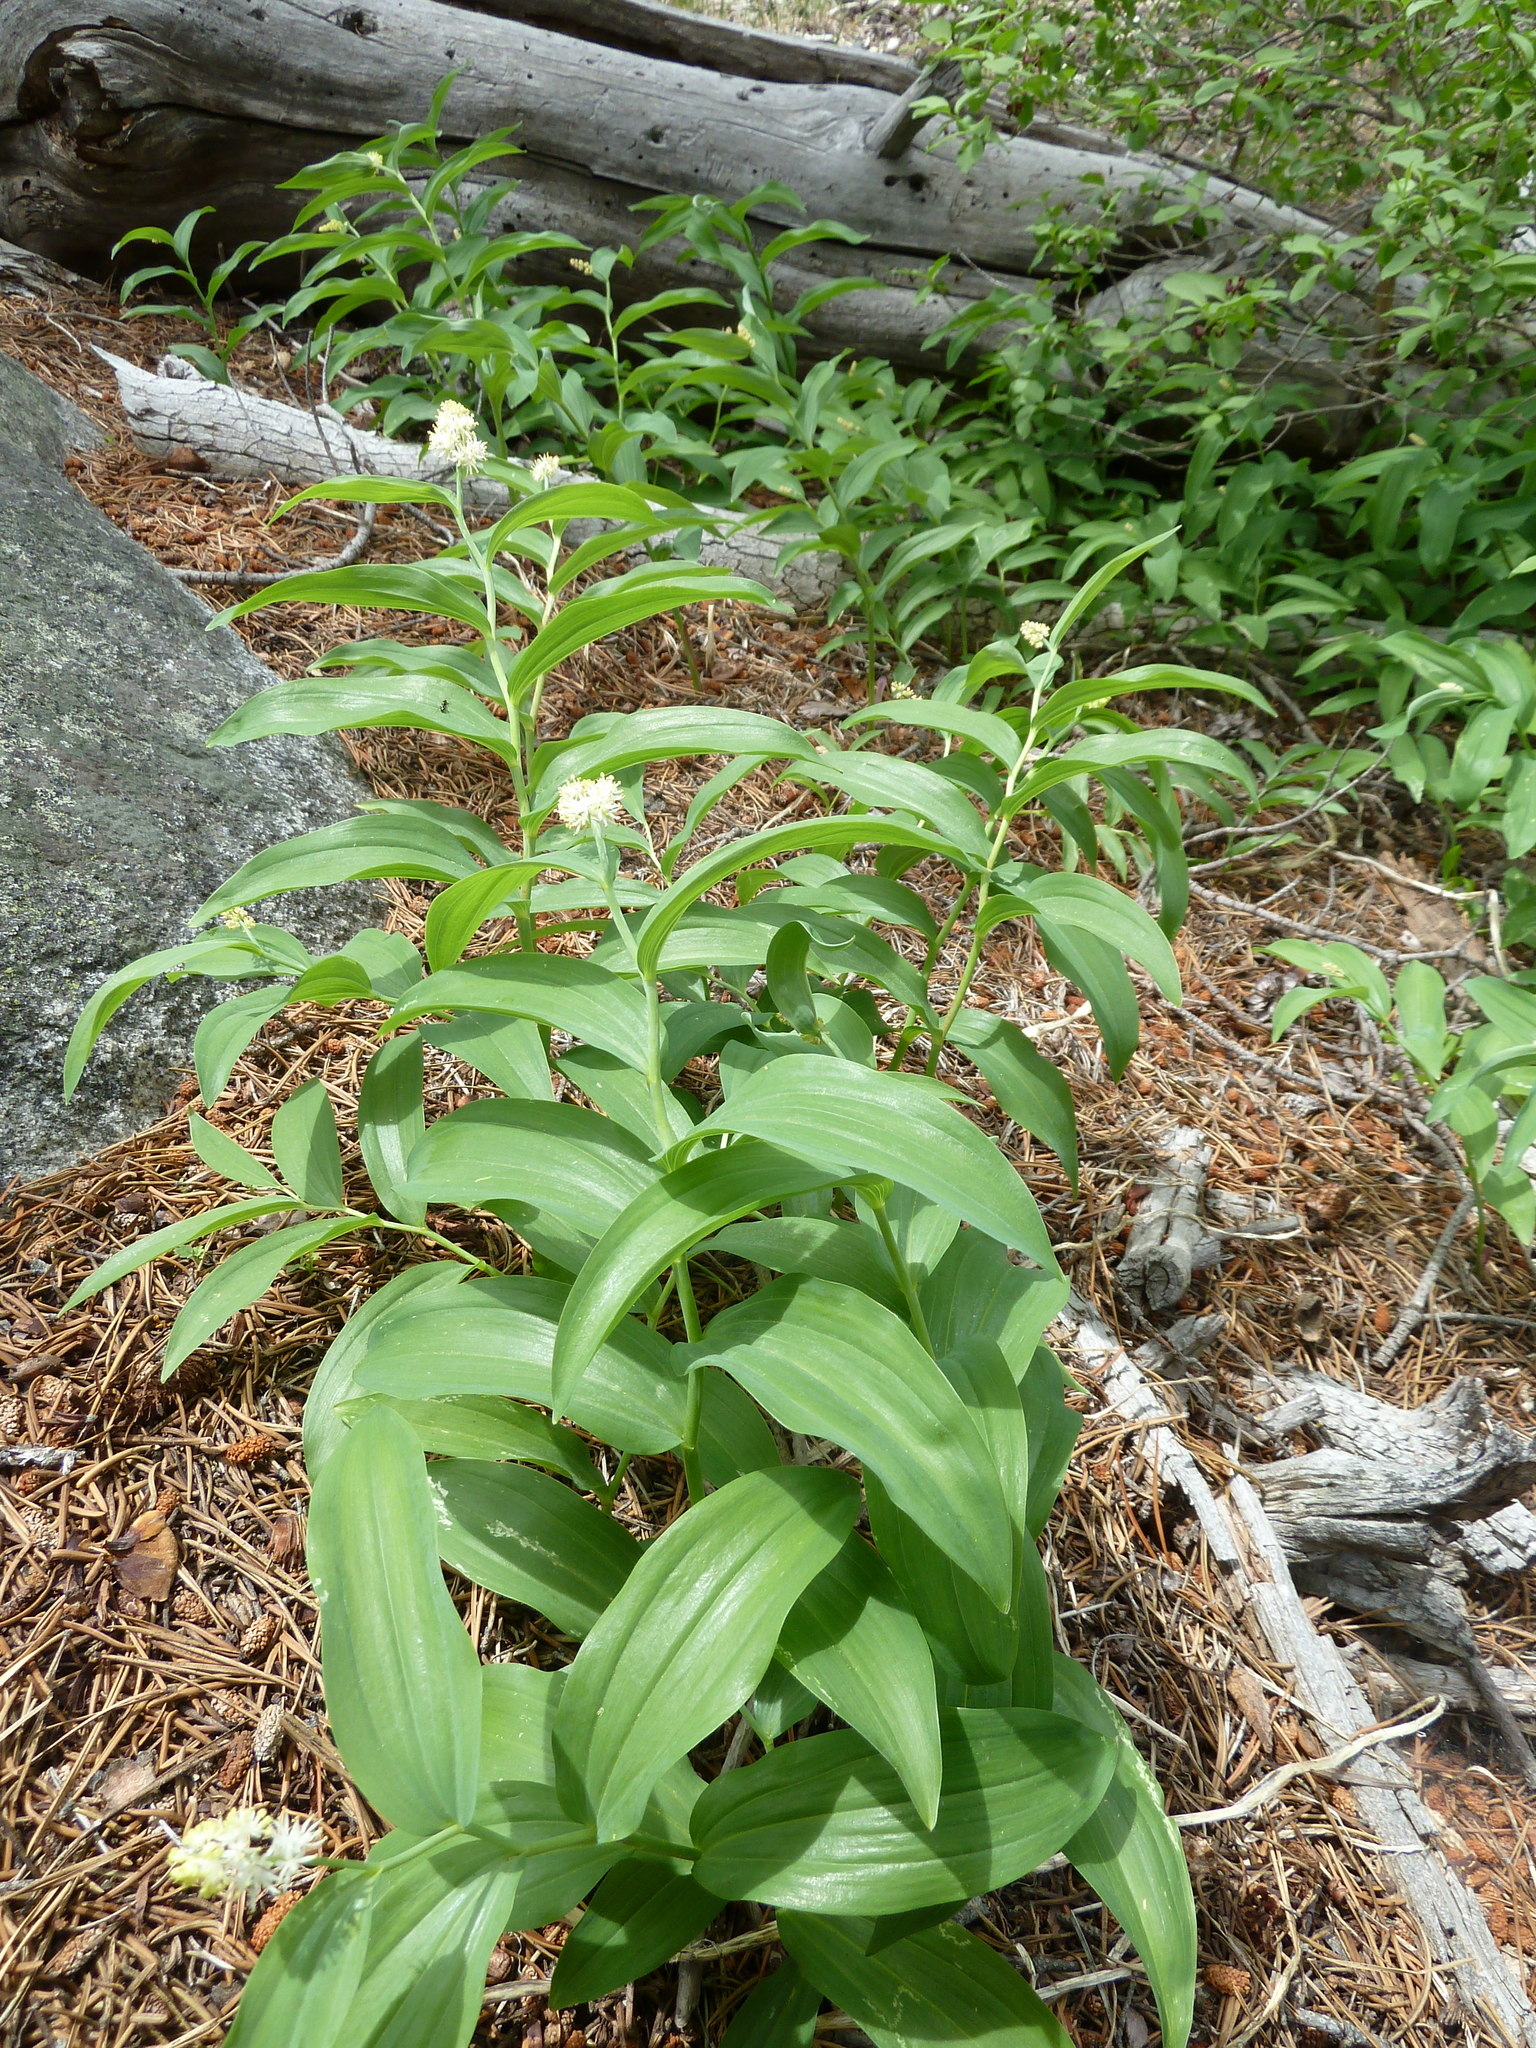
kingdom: Plantae
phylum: Tracheophyta
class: Liliopsida
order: Asparagales
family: Asparagaceae
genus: Maianthemum
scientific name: Maianthemum racemosum
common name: False spikenard
